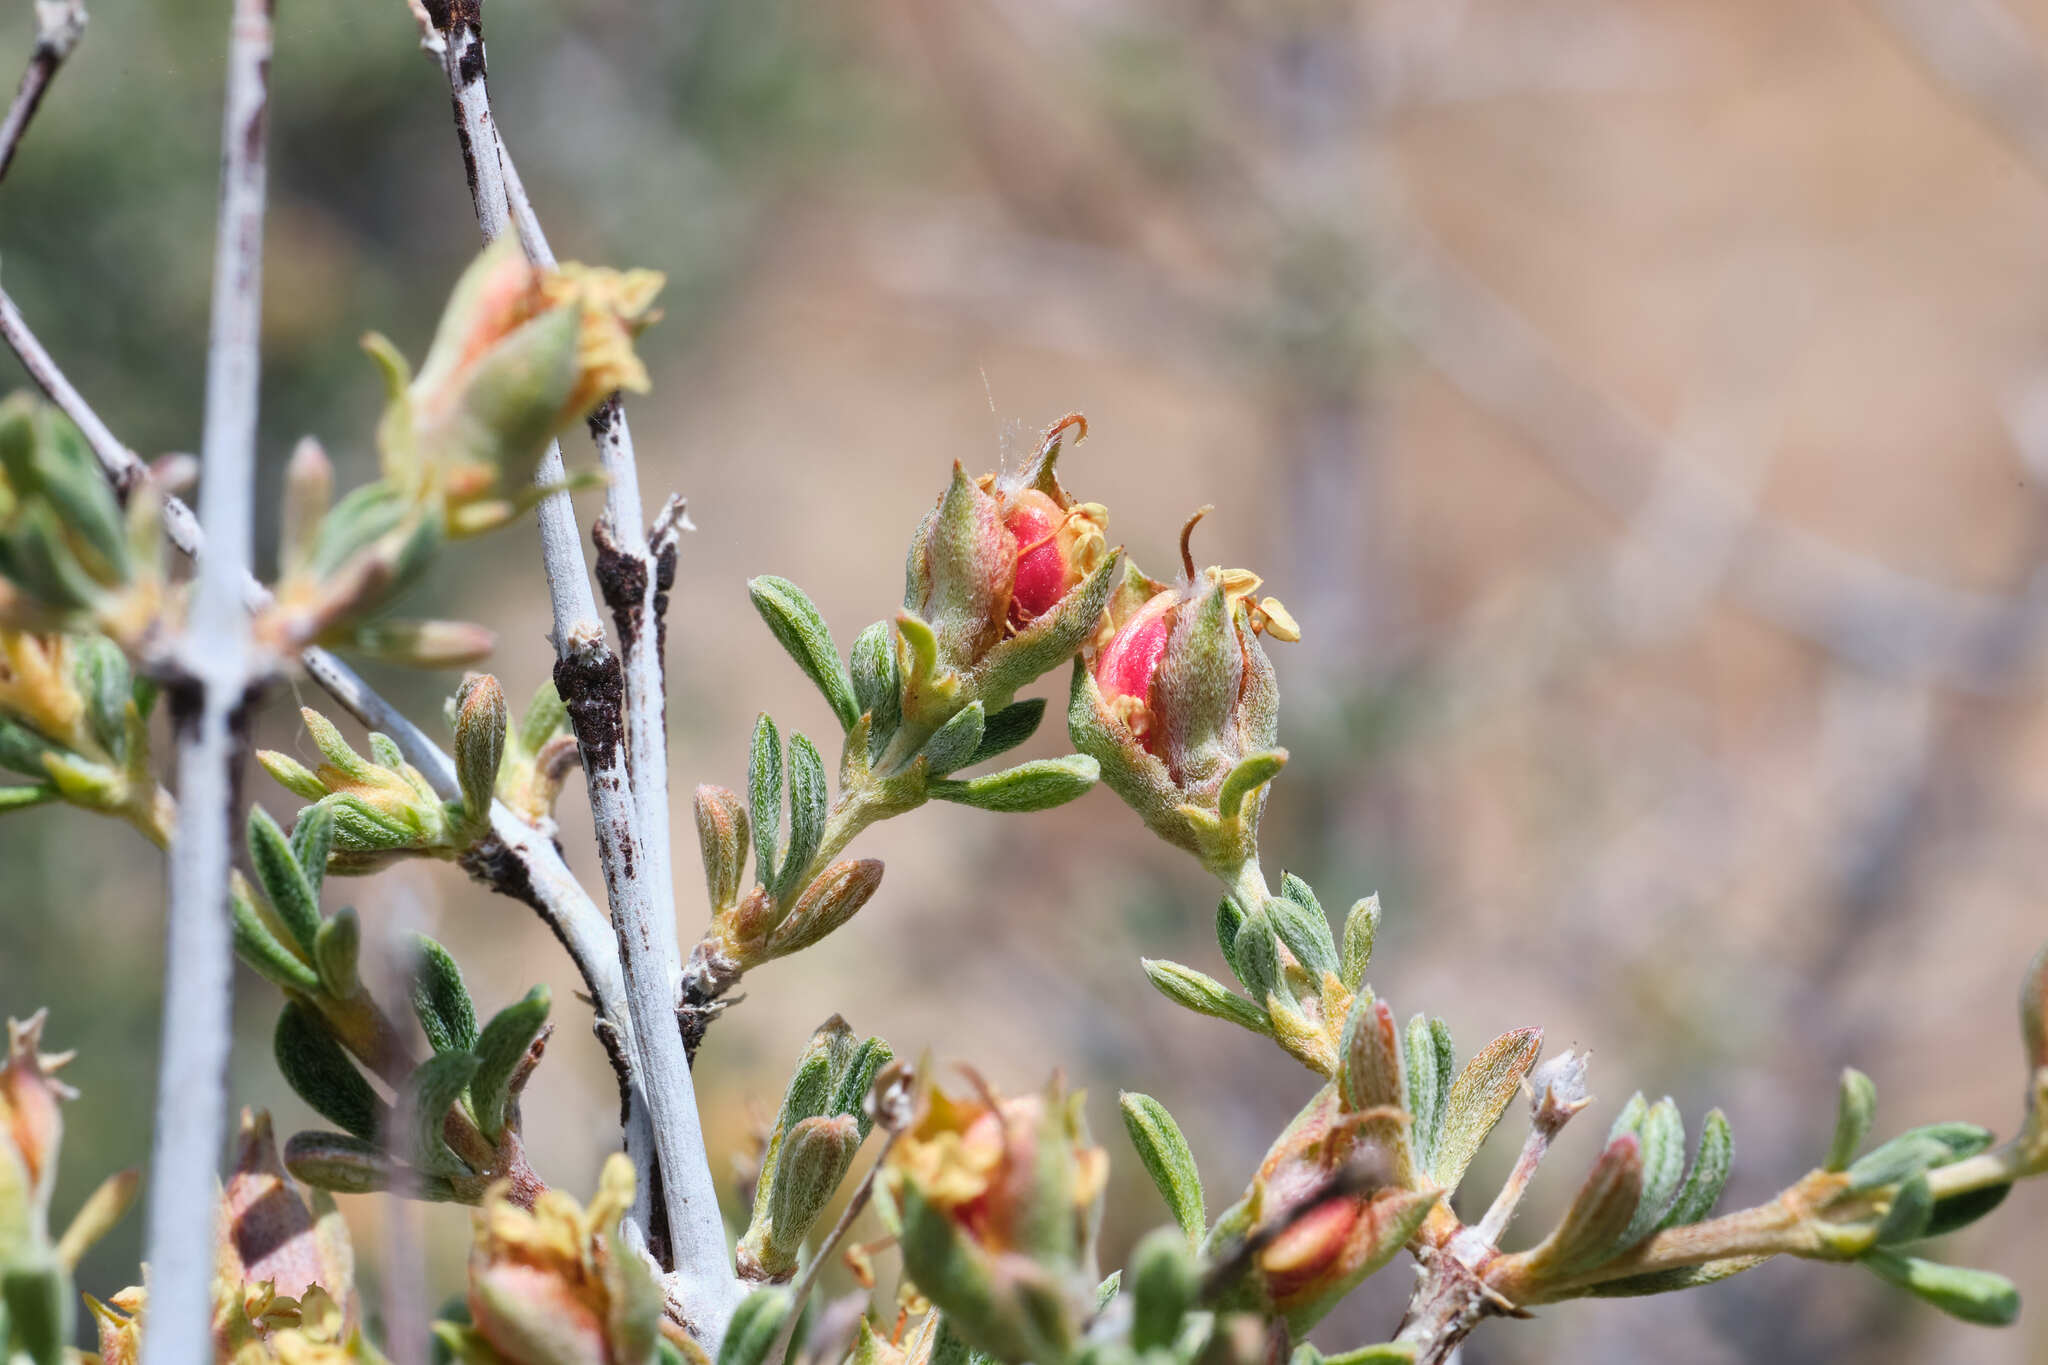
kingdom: Plantae
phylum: Tracheophyta
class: Magnoliopsida
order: Rosales
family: Rosaceae
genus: Coleogyne
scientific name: Coleogyne ramosissima
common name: Blackbrush
